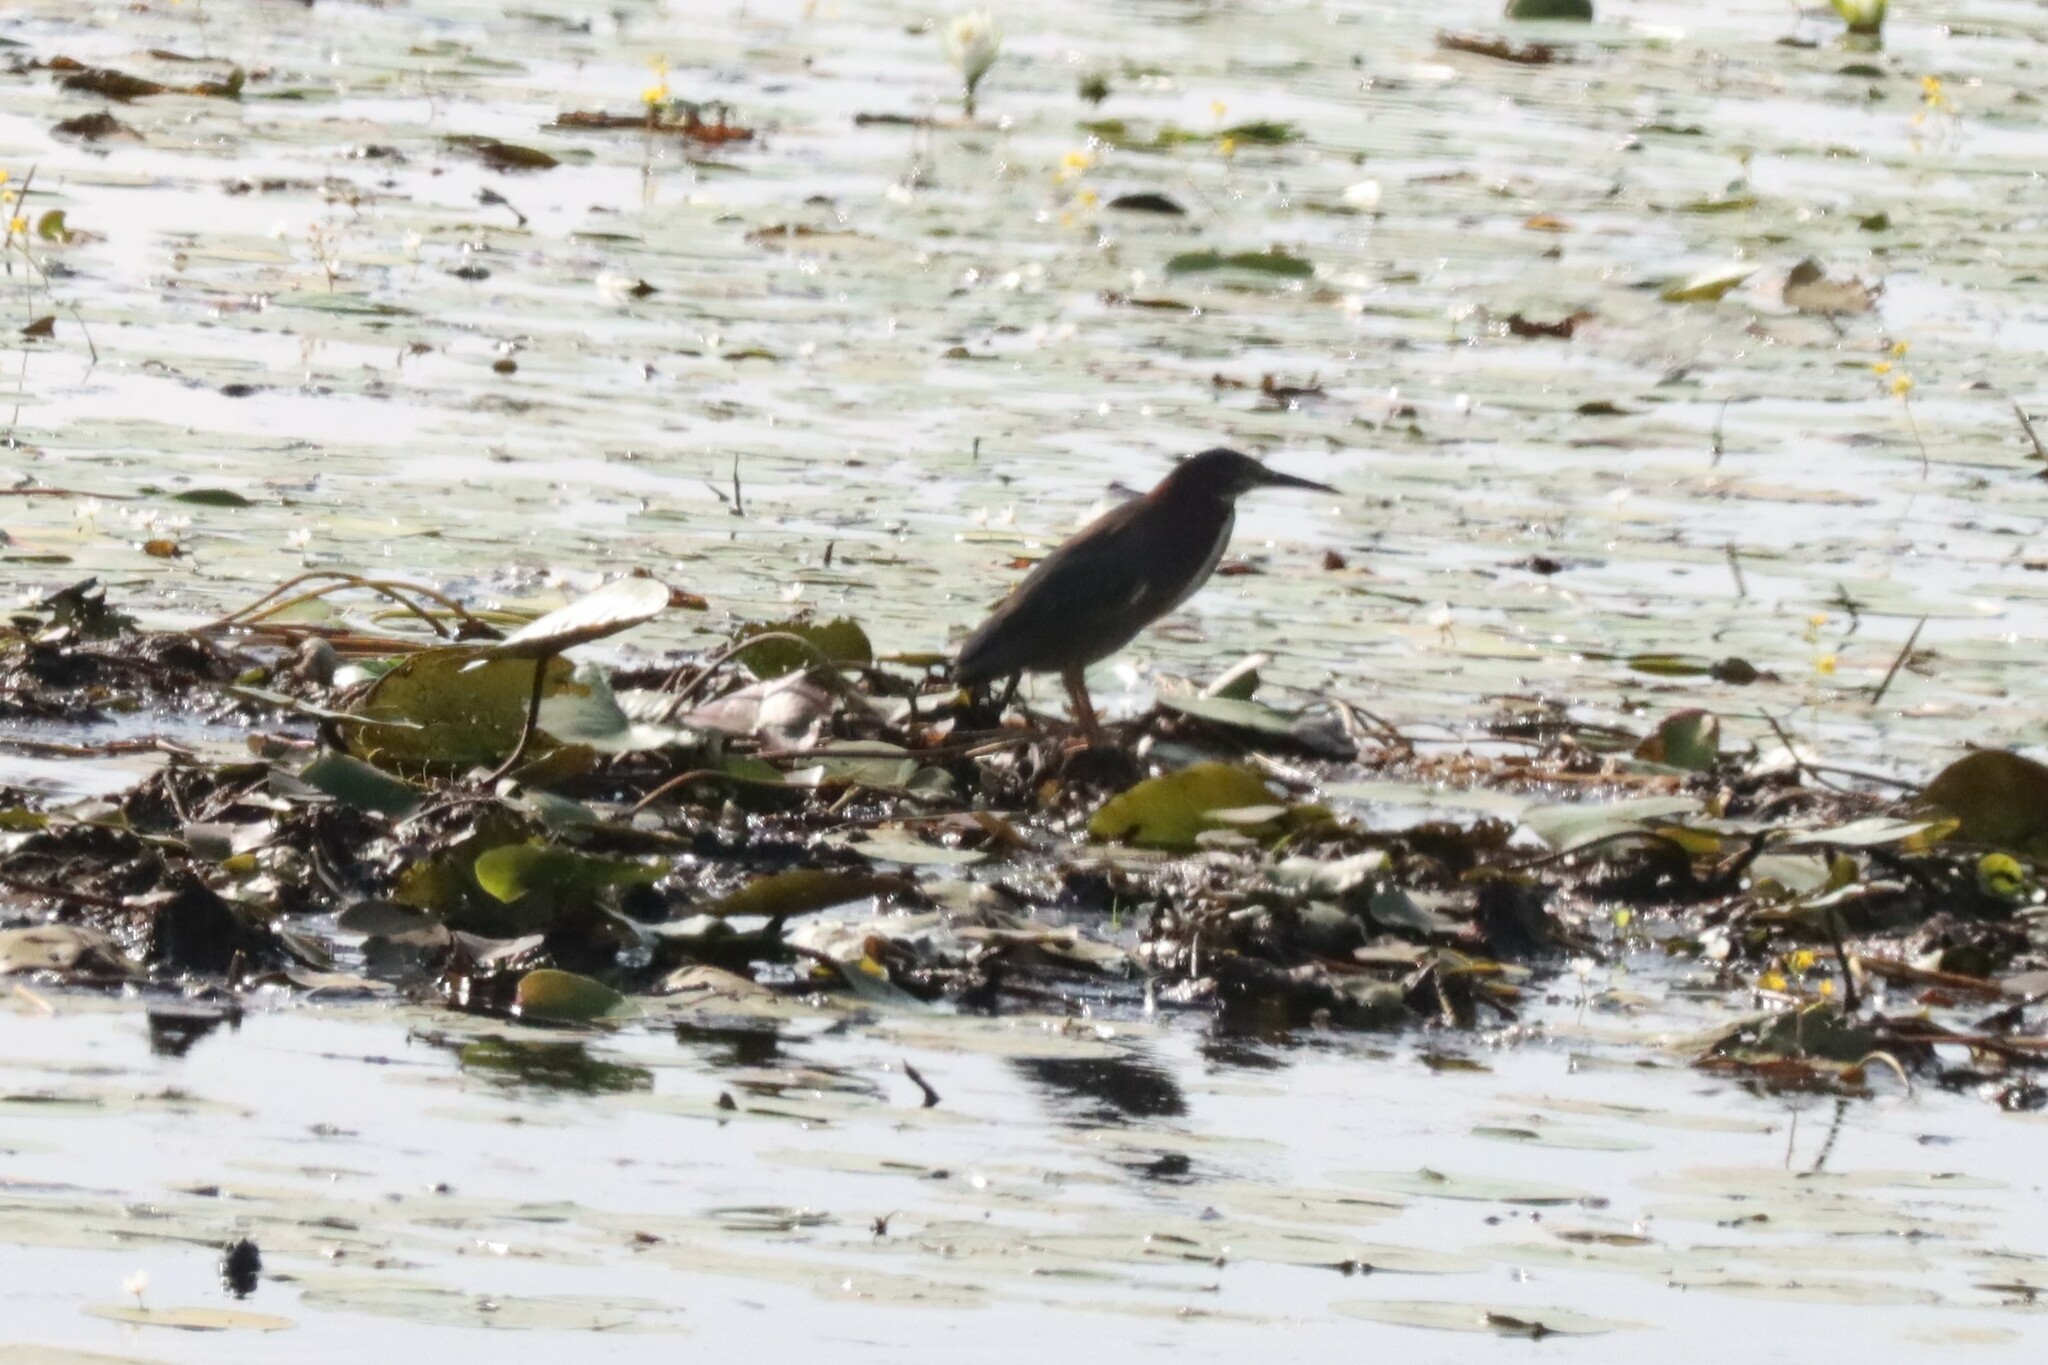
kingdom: Animalia
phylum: Chordata
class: Aves
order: Pelecaniformes
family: Ardeidae
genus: Butorides
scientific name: Butorides virescens
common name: Green heron
